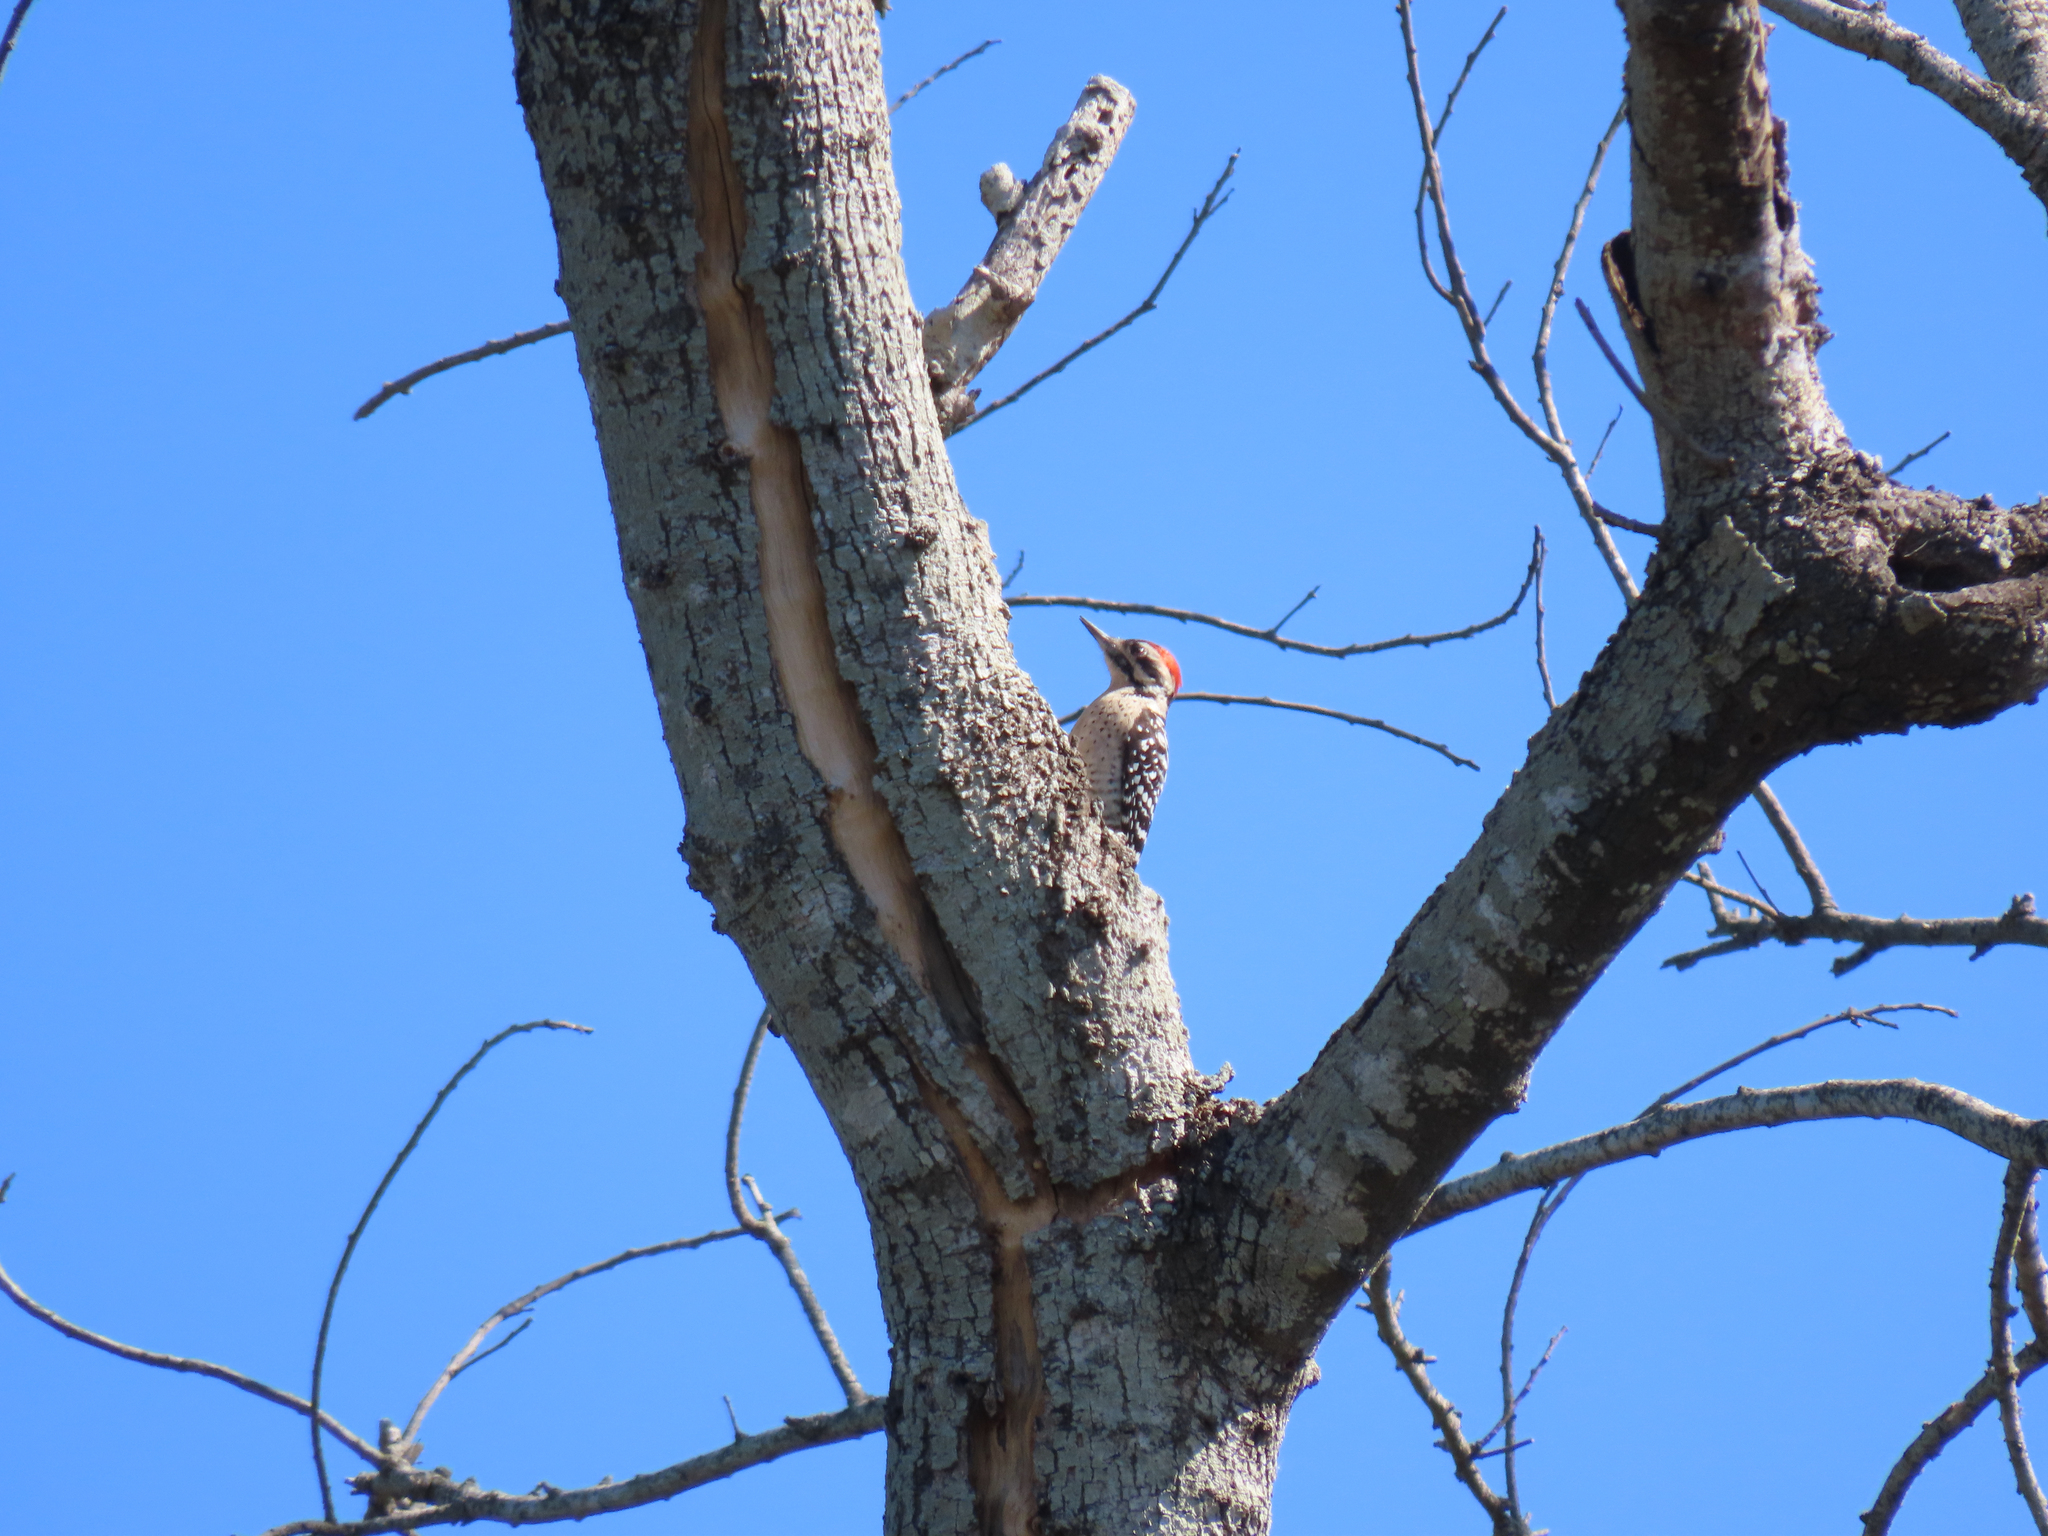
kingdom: Animalia
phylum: Chordata
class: Aves
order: Piciformes
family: Picidae
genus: Dryobates
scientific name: Dryobates scalaris
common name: Ladder-backed woodpecker
